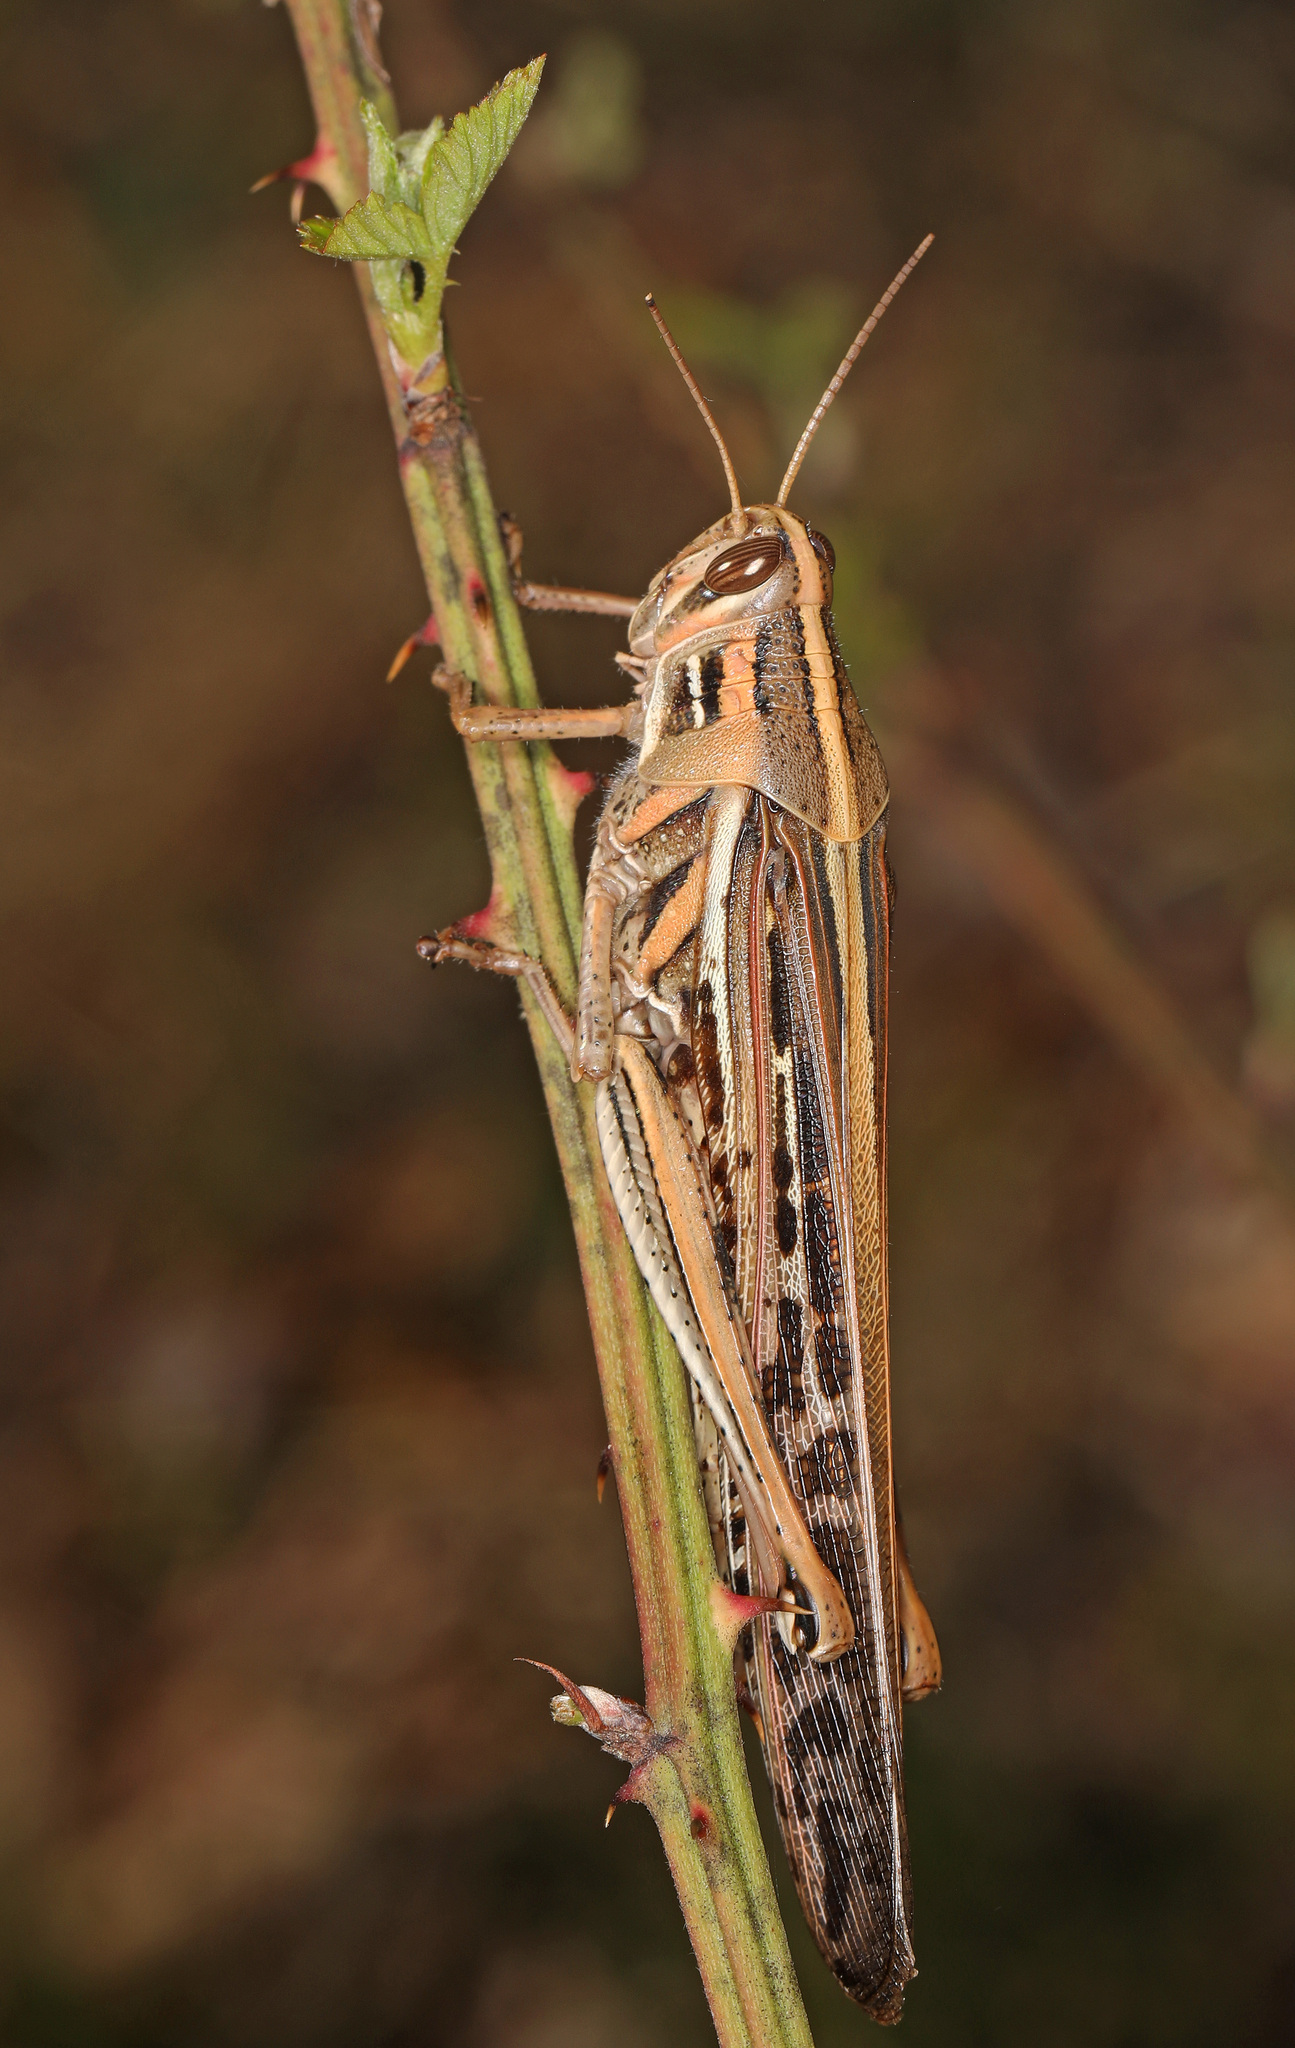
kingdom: Animalia
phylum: Arthropoda
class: Insecta
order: Orthoptera
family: Acrididae
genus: Schistocerca
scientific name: Schistocerca americana
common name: American bird locust
